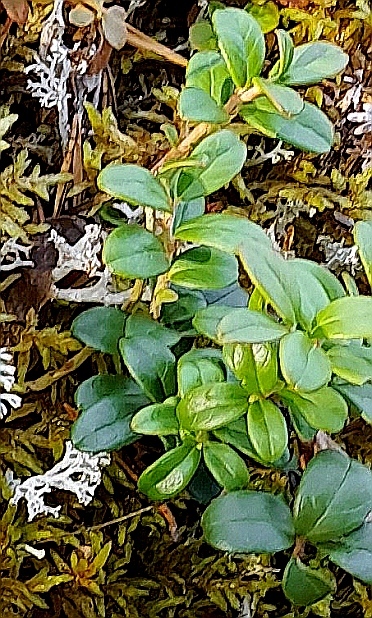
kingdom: Plantae
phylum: Tracheophyta
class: Magnoliopsida
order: Ericales
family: Ericaceae
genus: Vaccinium
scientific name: Vaccinium vitis-idaea
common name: Cowberry
